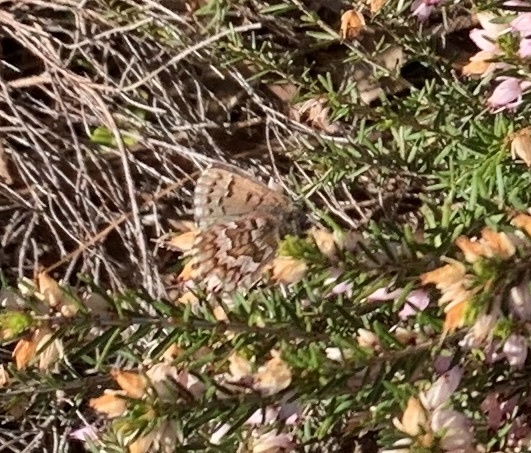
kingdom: Animalia
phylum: Arthropoda
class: Insecta
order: Lepidoptera
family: Lycaenidae
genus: Incisalia
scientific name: Incisalia niphon
